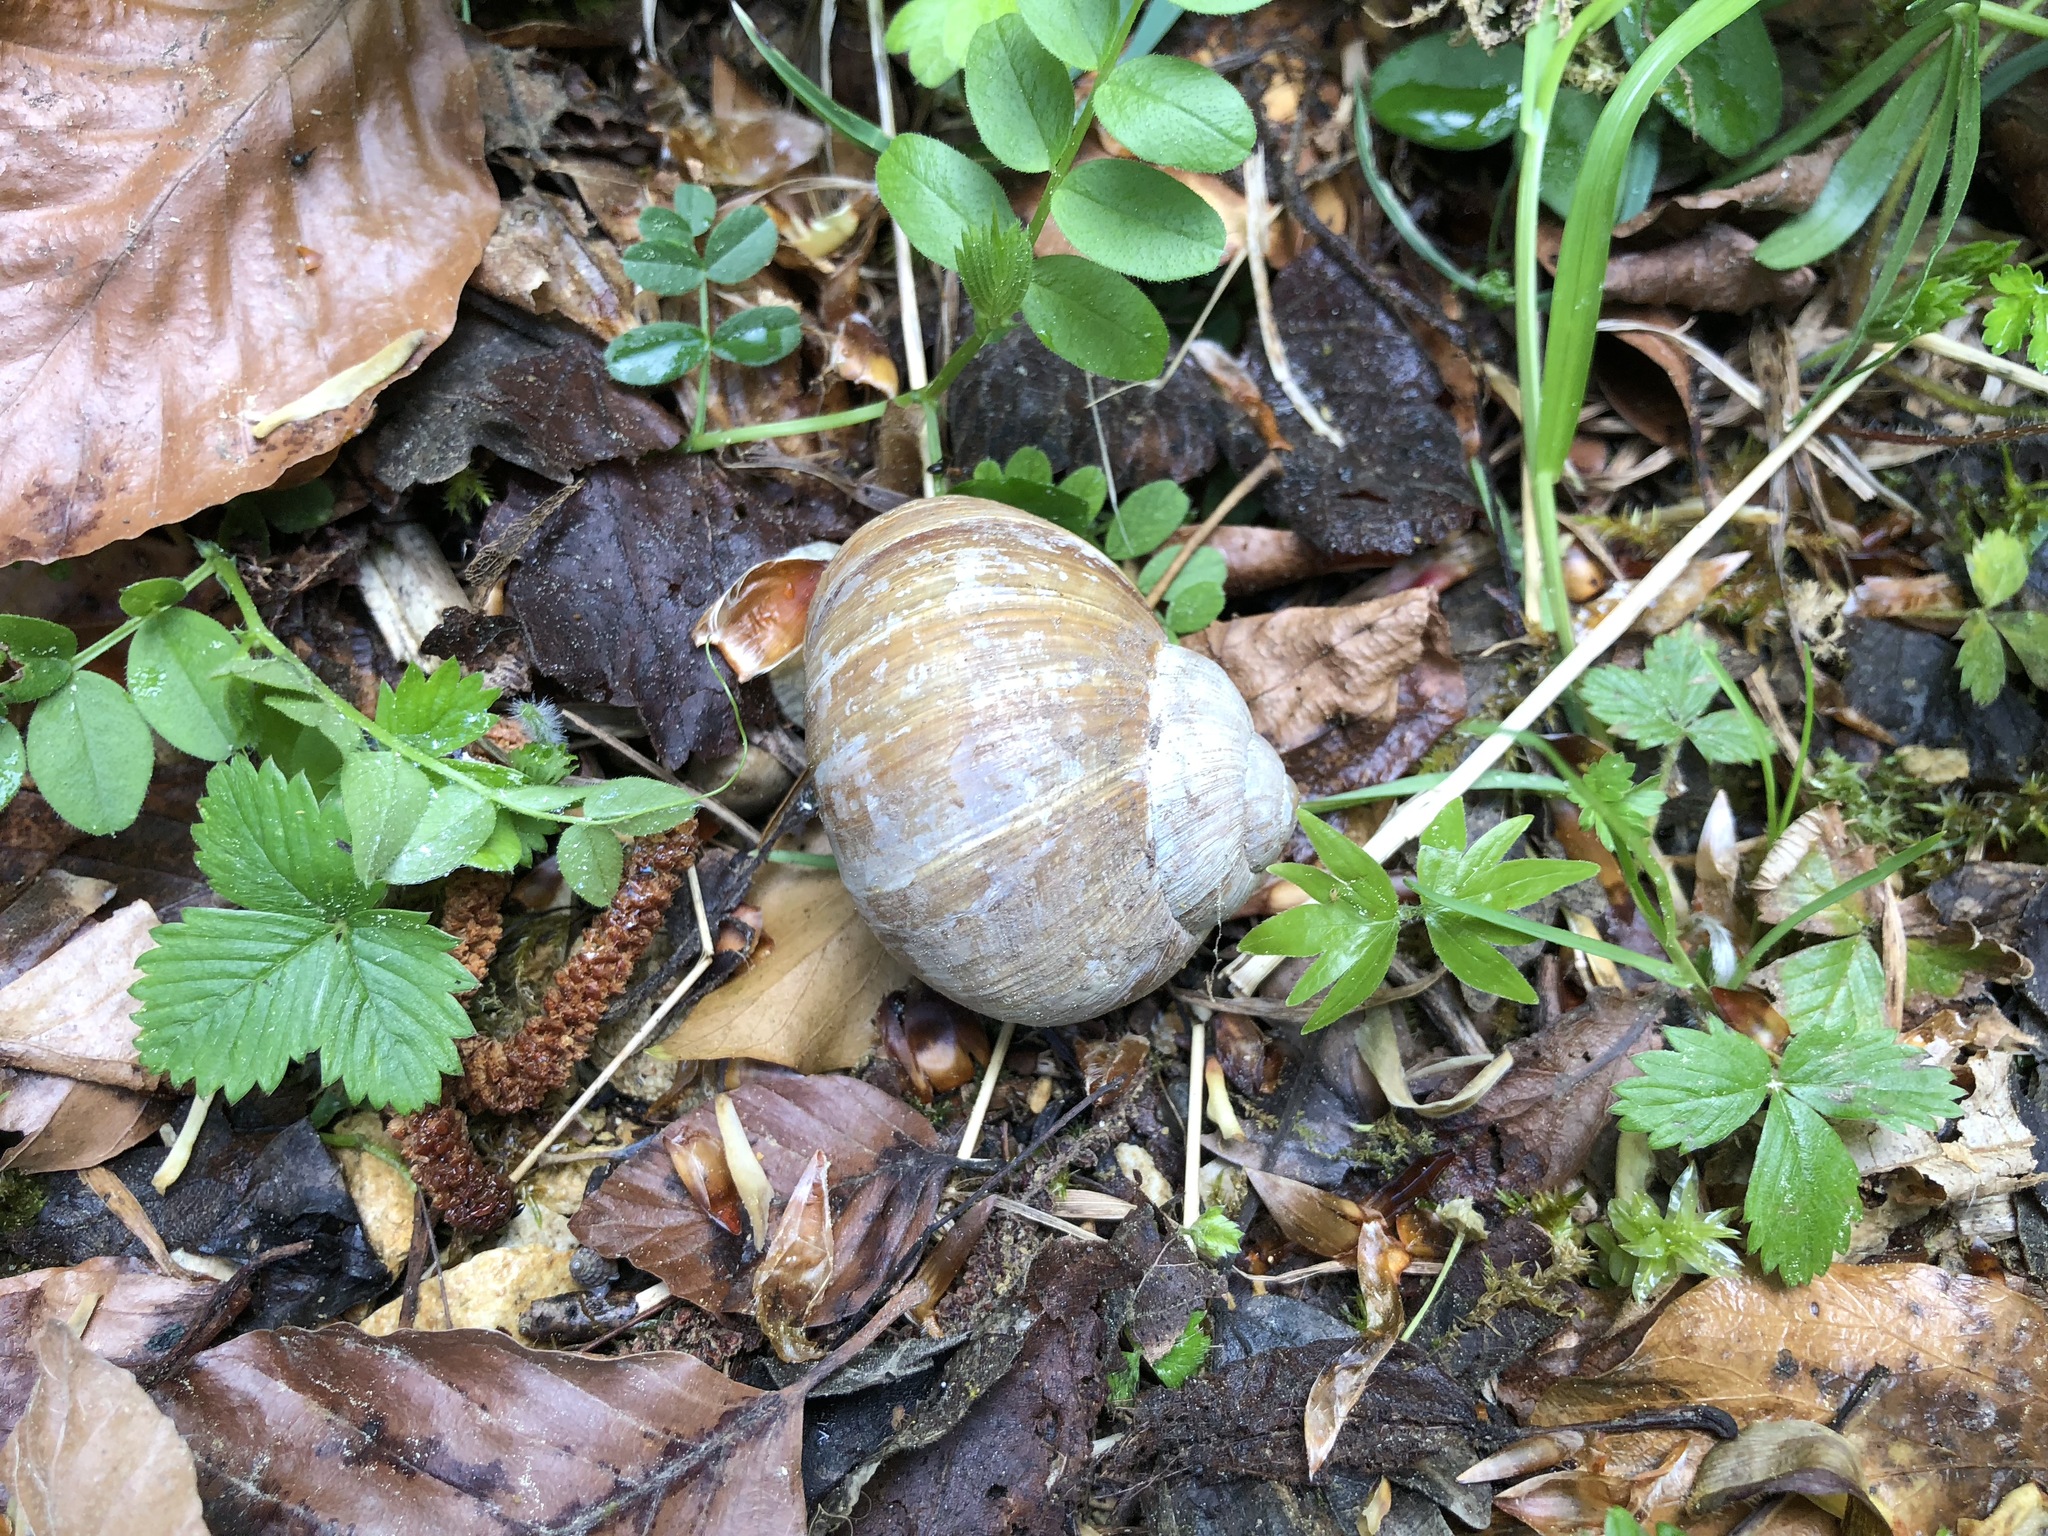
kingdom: Animalia
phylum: Mollusca
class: Gastropoda
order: Stylommatophora
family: Helicidae
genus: Helix
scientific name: Helix pomatia
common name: Roman snail
